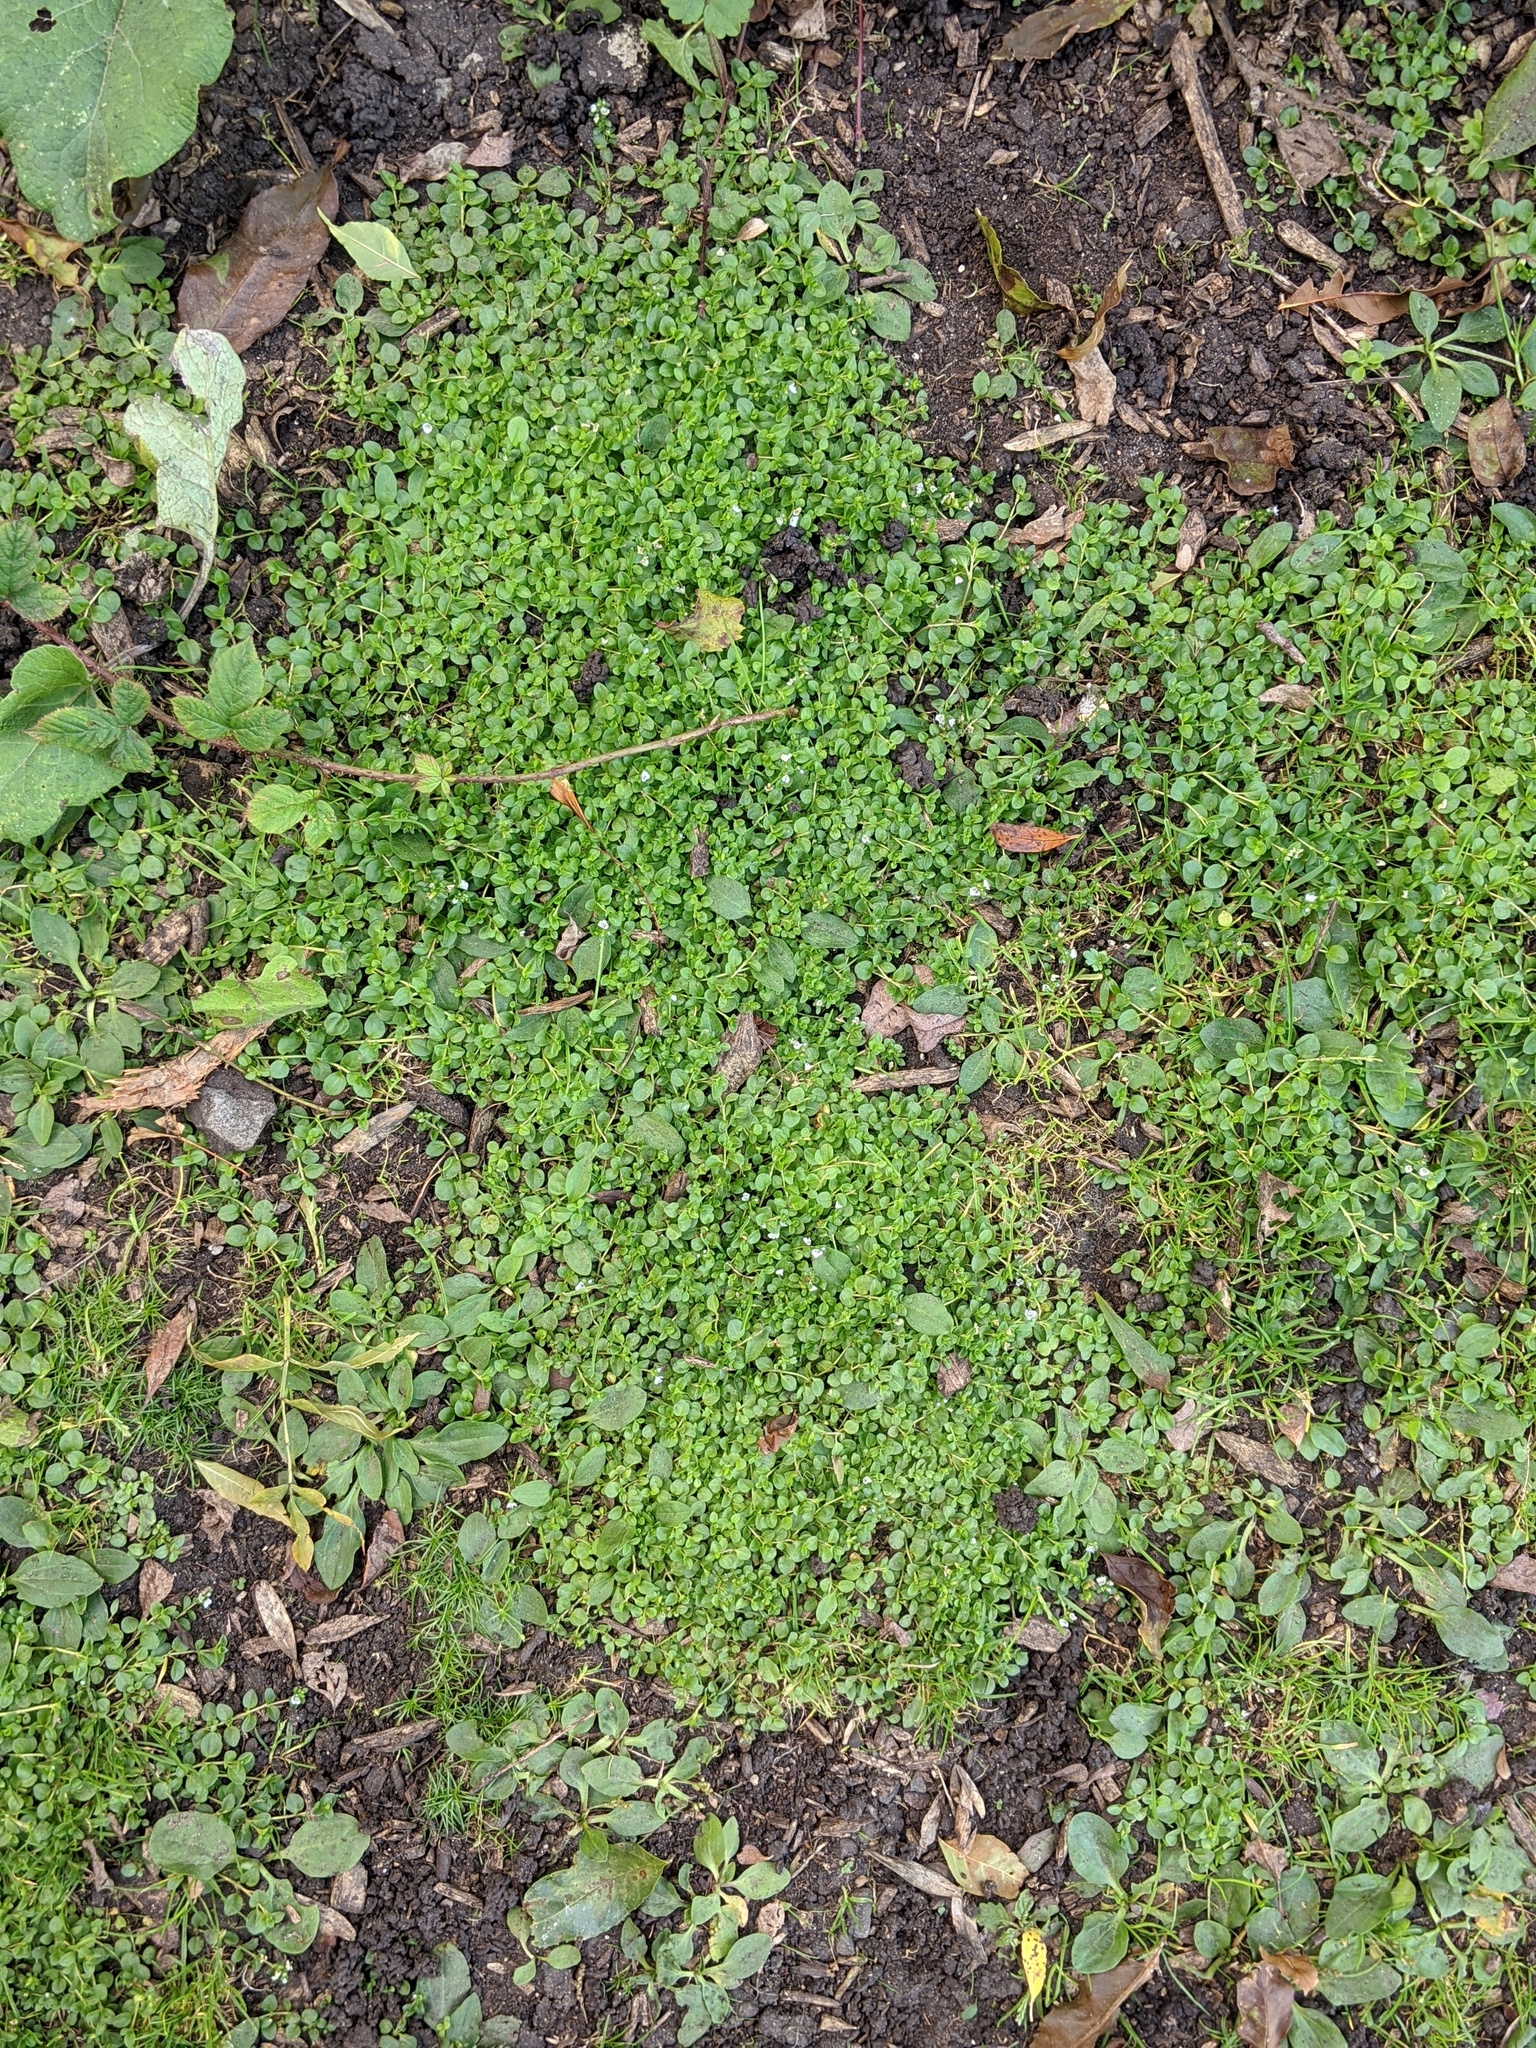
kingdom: Plantae
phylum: Tracheophyta
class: Magnoliopsida
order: Lamiales
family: Plantaginaceae
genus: Veronica
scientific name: Veronica serpyllifolia
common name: Thyme-leaved speedwell
